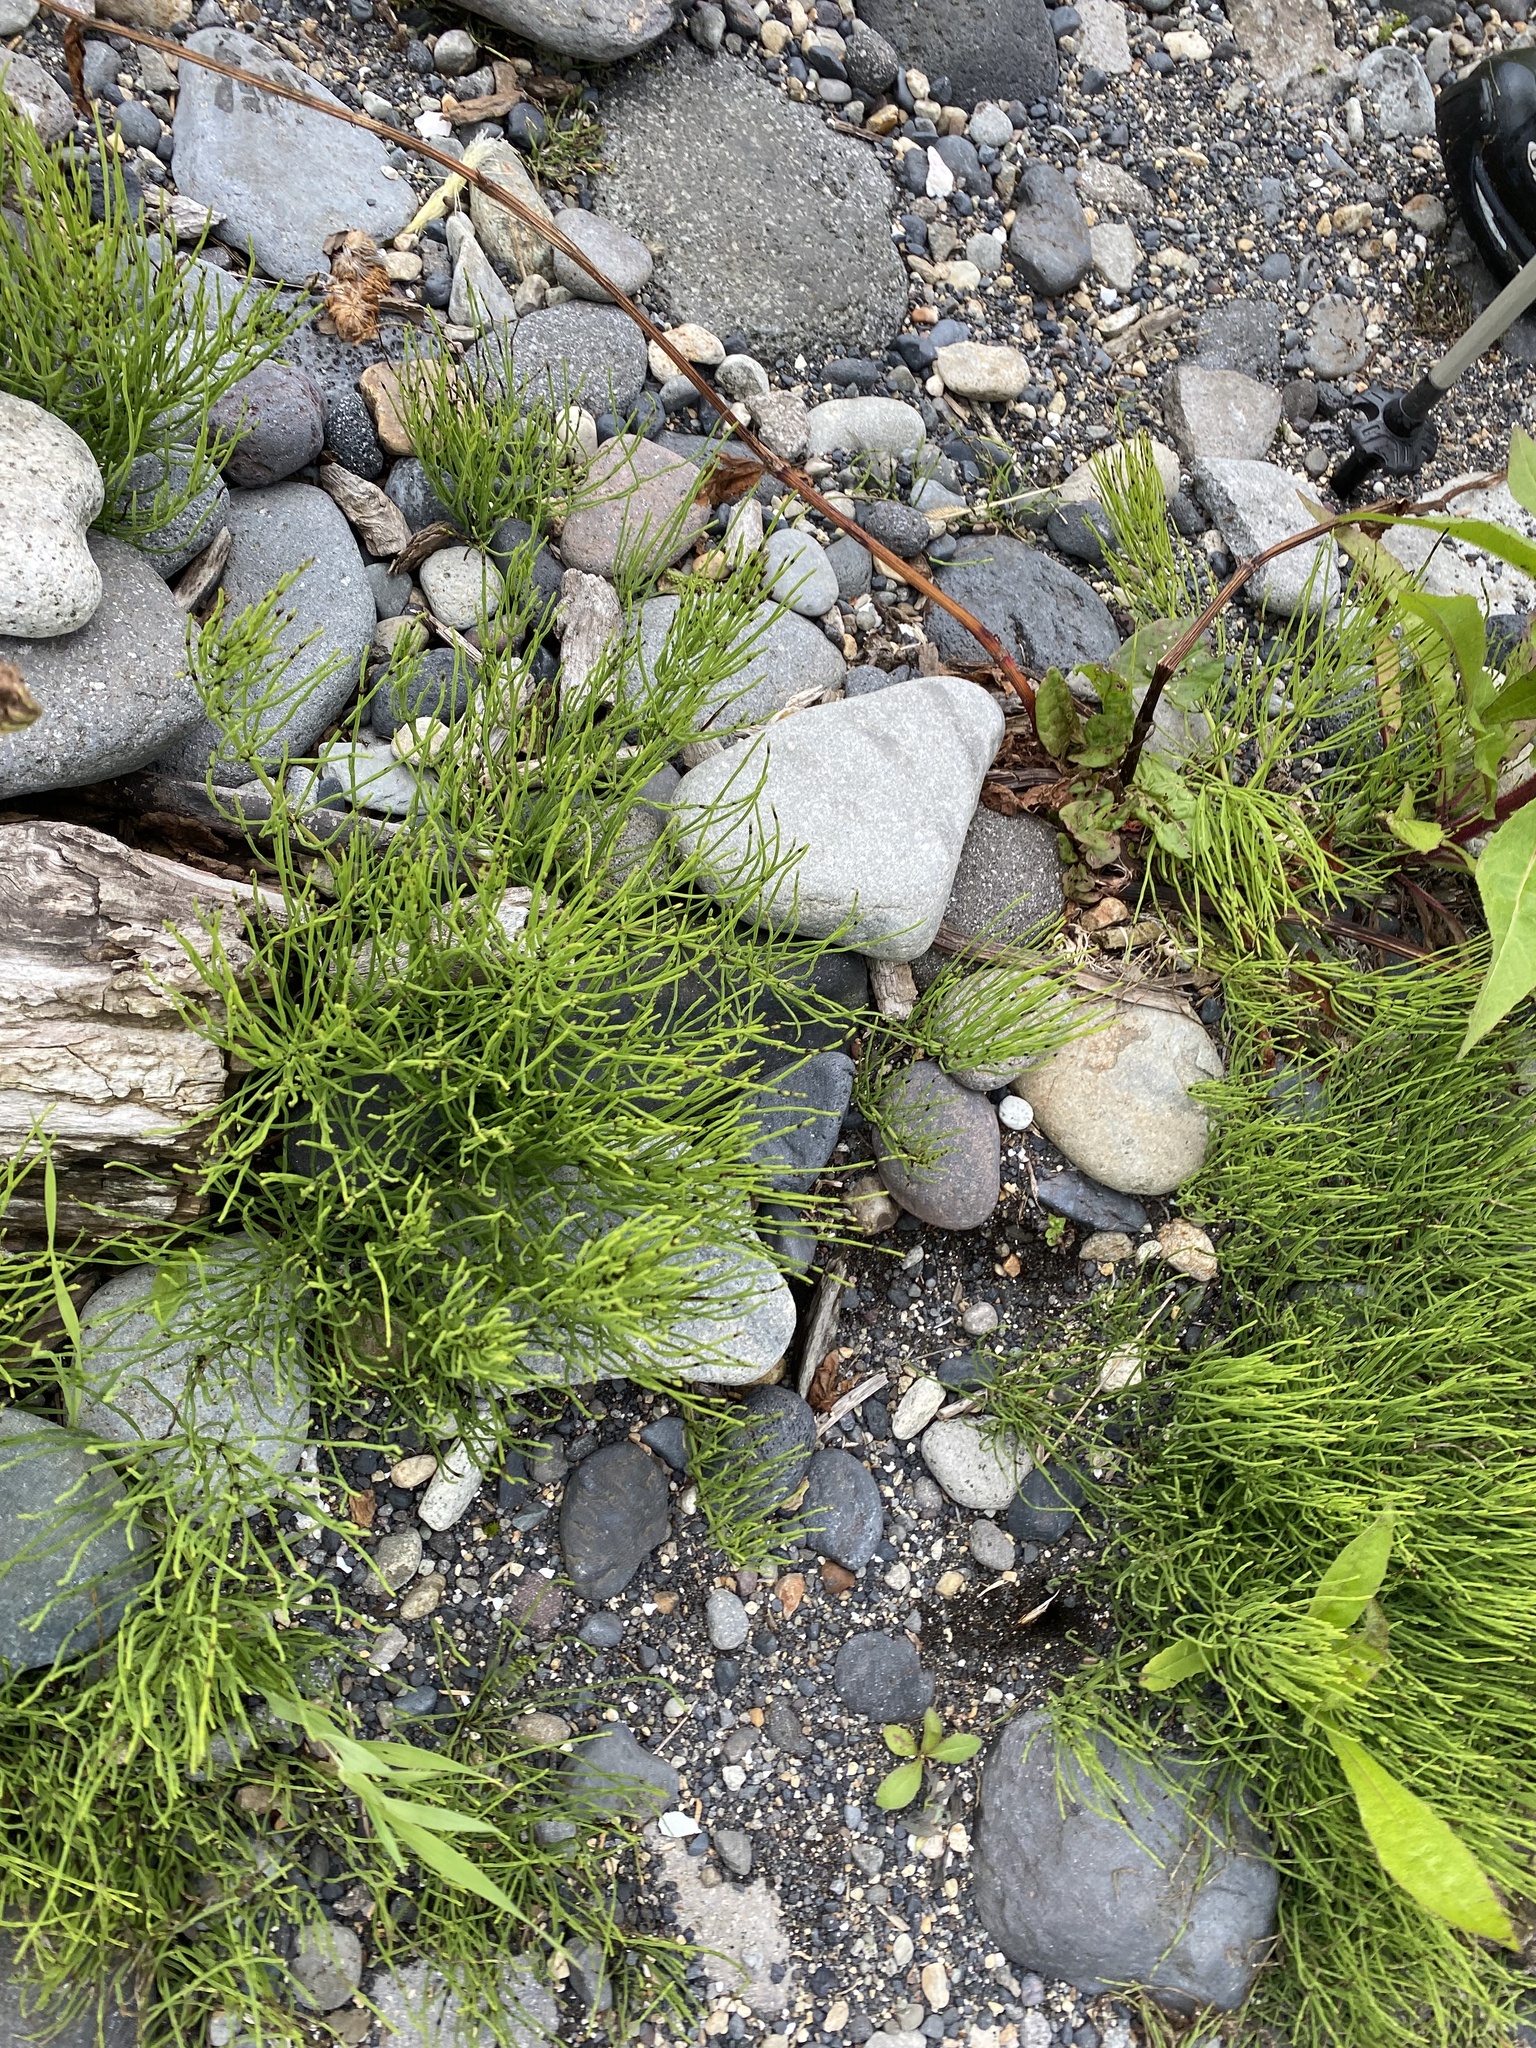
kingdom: Plantae
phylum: Tracheophyta
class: Polypodiopsida
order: Equisetales
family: Equisetaceae
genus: Equisetum
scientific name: Equisetum arvense
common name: Field horsetail
